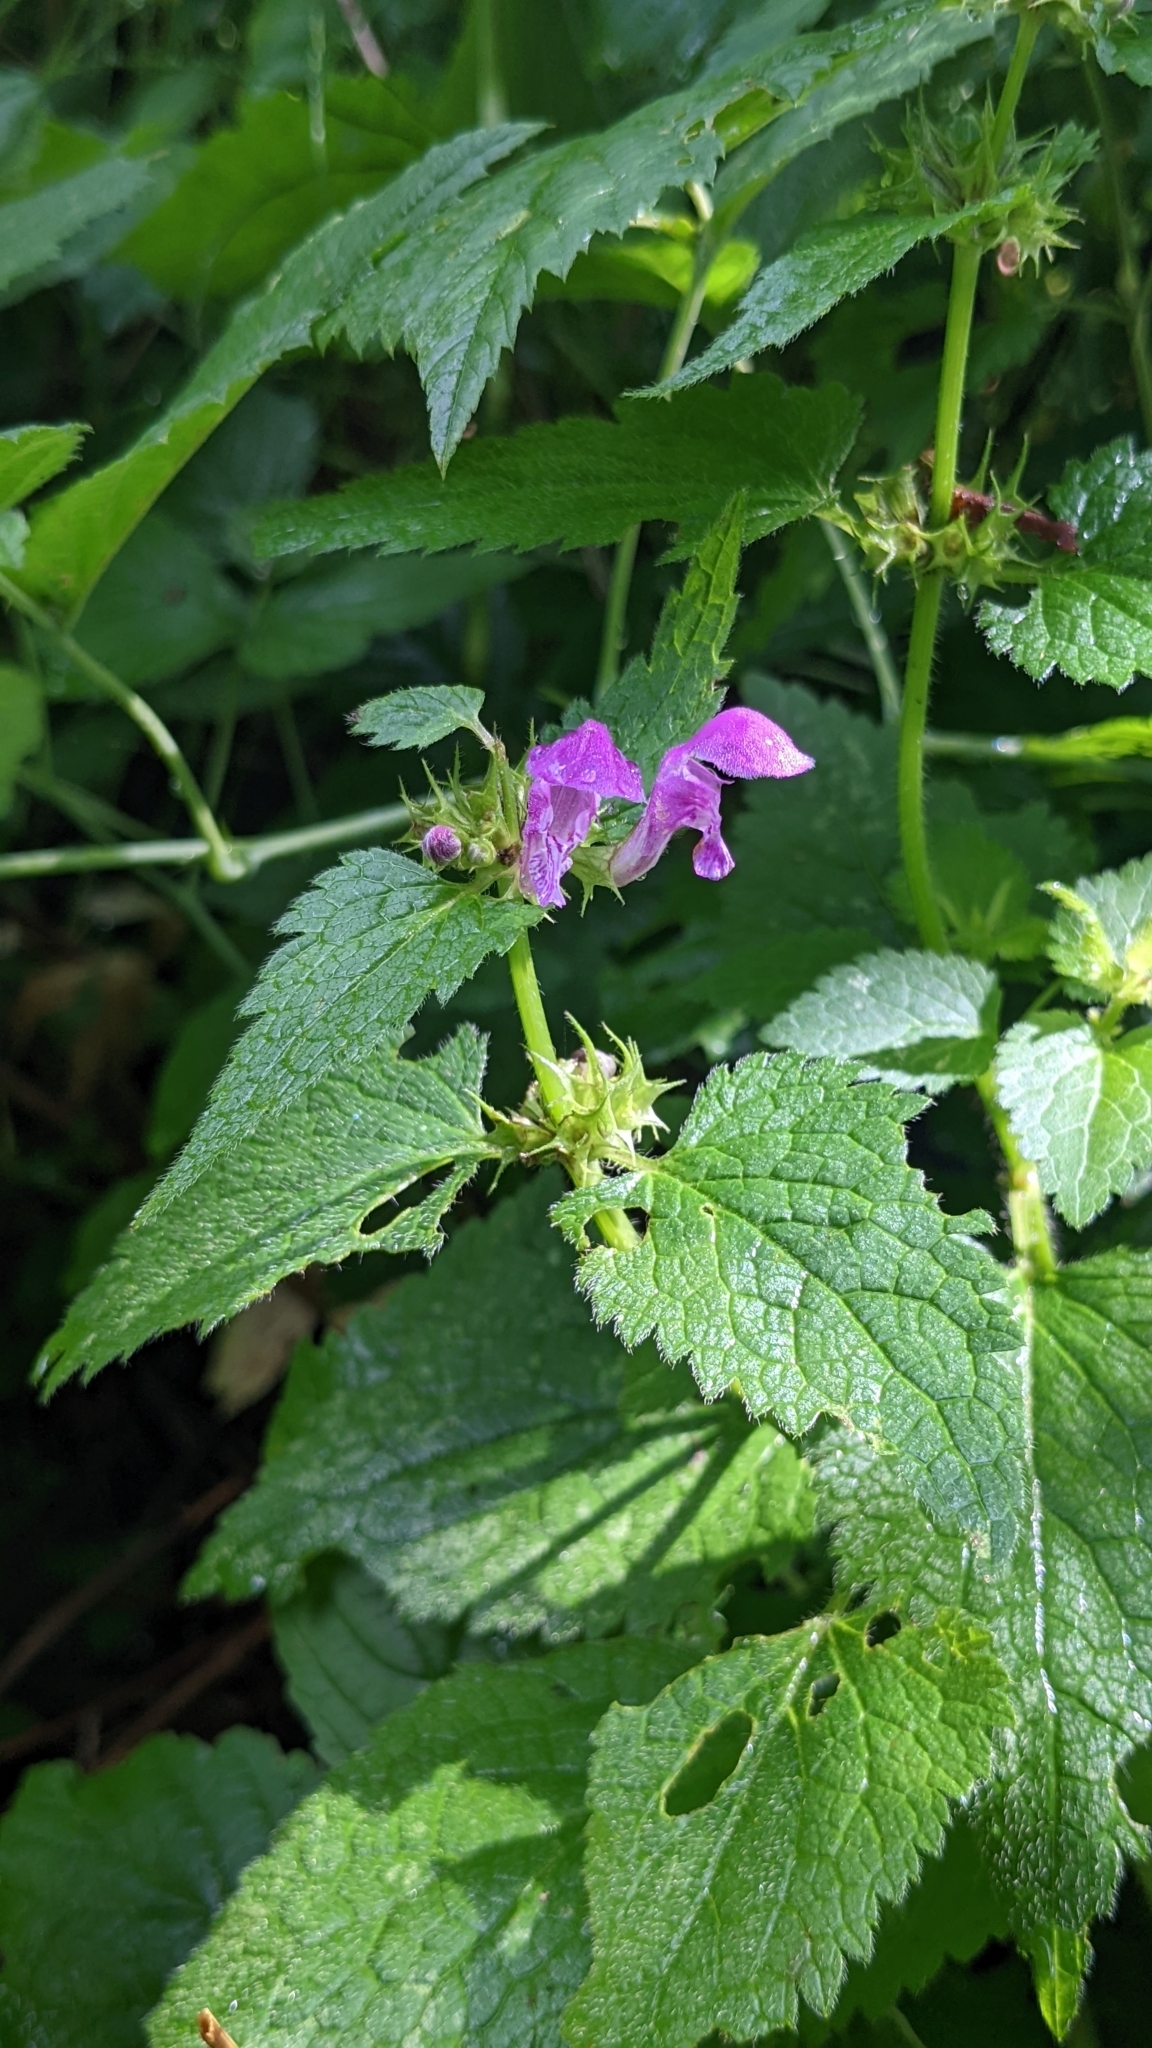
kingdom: Plantae
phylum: Tracheophyta
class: Magnoliopsida
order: Lamiales
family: Lamiaceae
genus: Lamium
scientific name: Lamium maculatum
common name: Spotted dead-nettle
